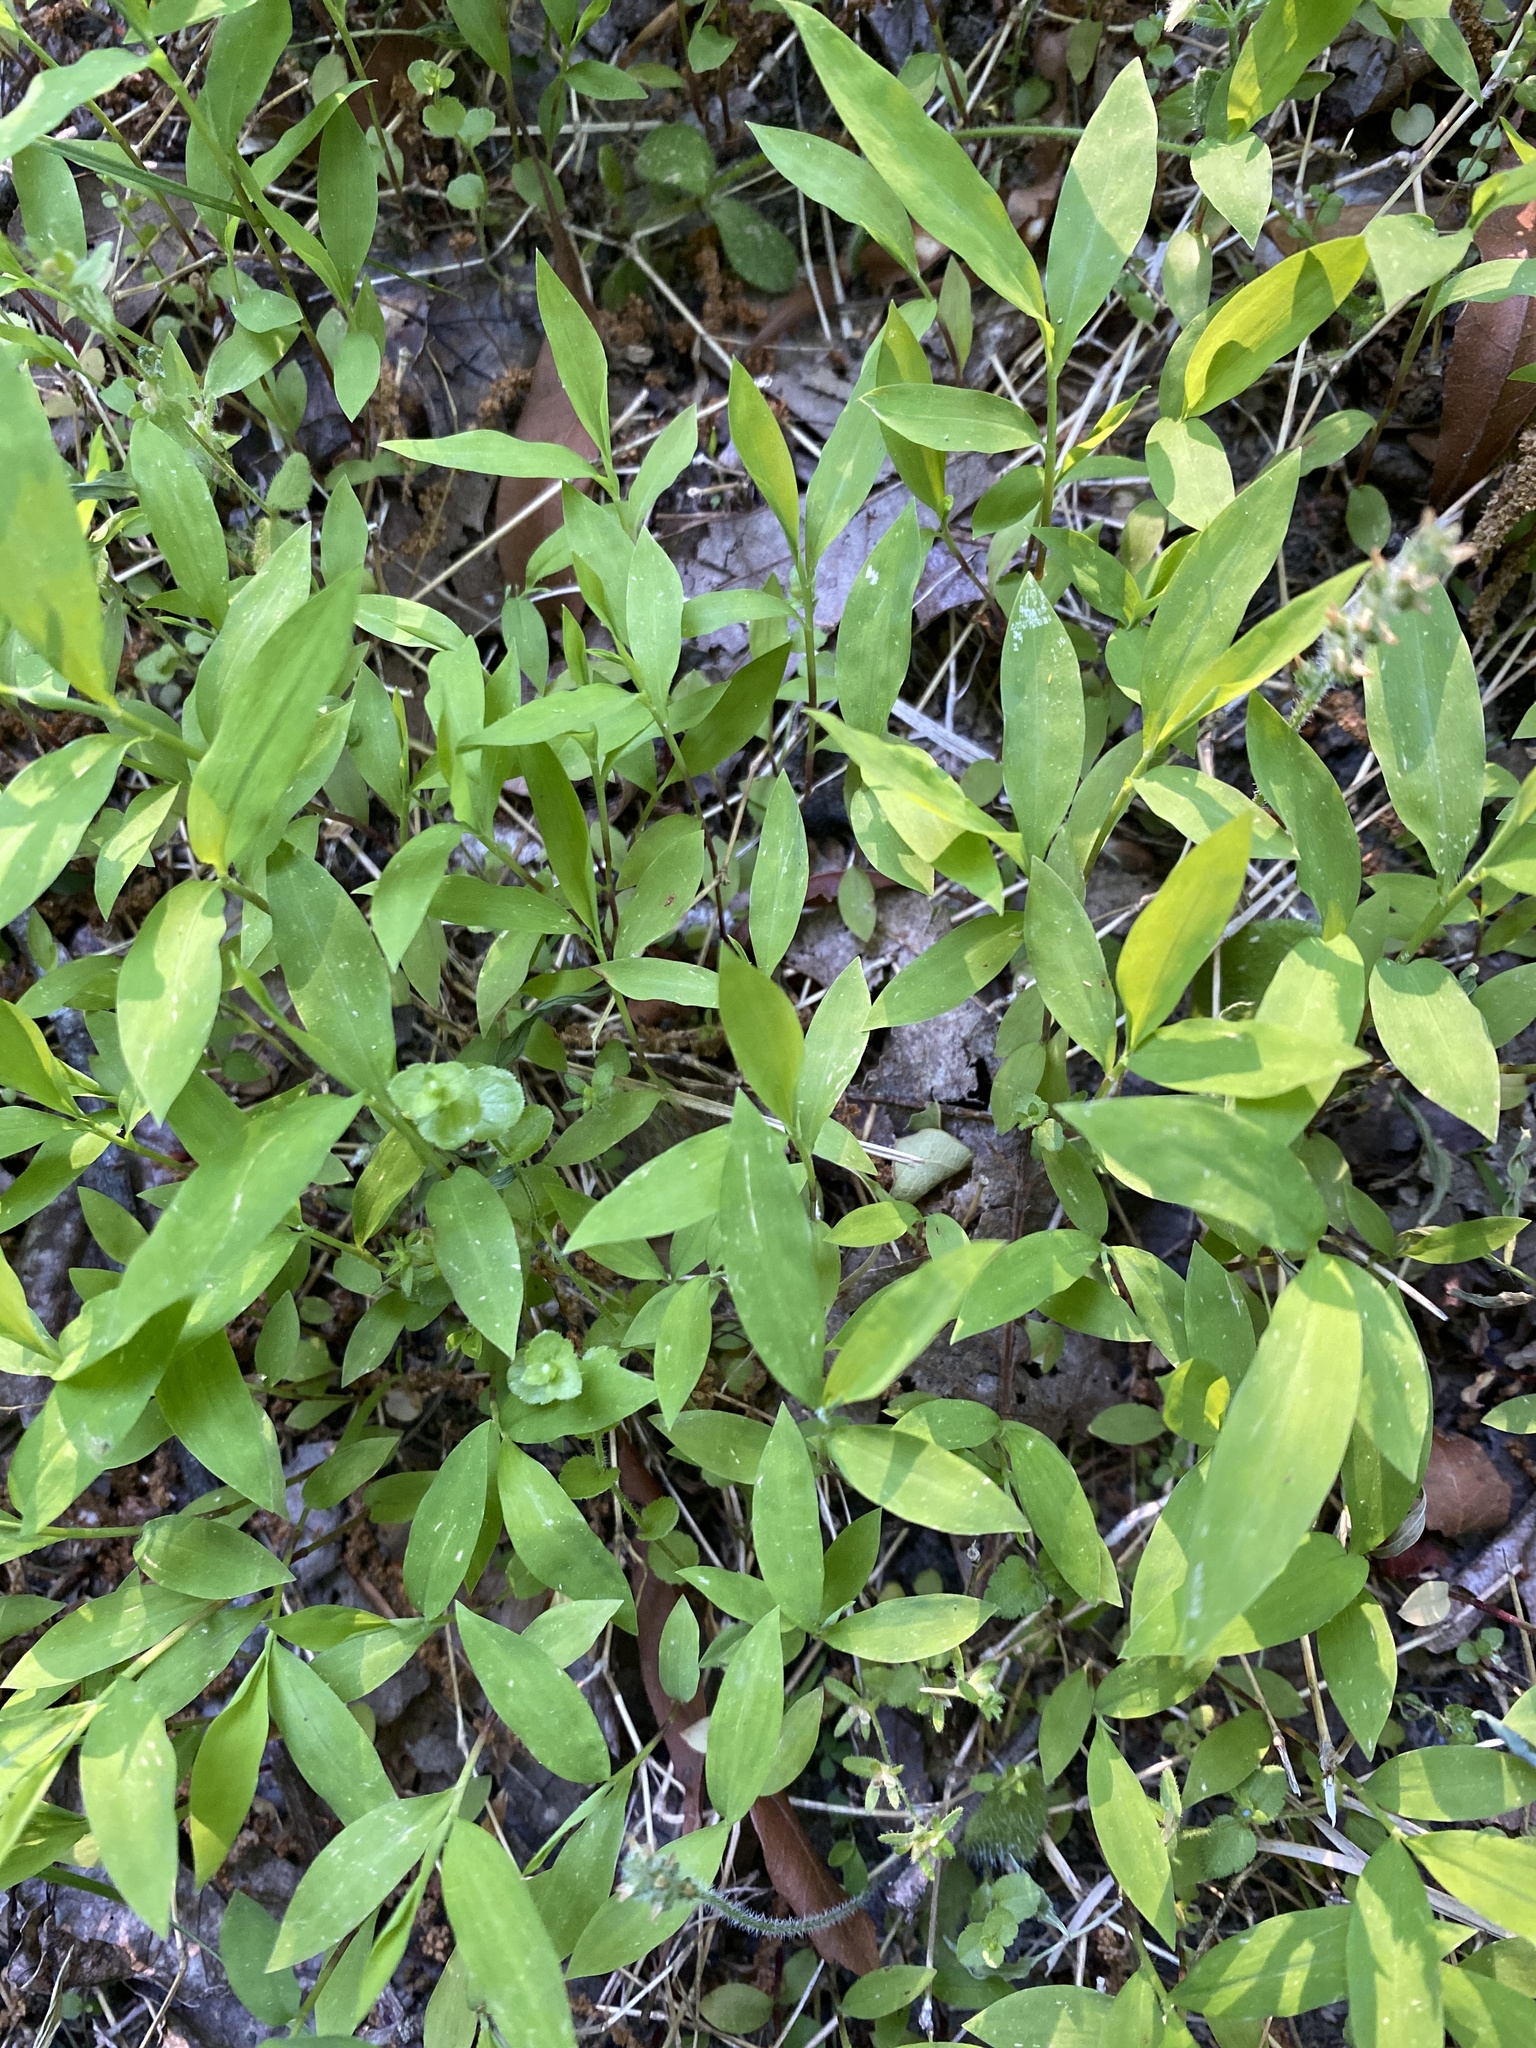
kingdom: Plantae
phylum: Tracheophyta
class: Liliopsida
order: Poales
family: Poaceae
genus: Microstegium
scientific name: Microstegium vimineum
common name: Japanese stiltgrass
